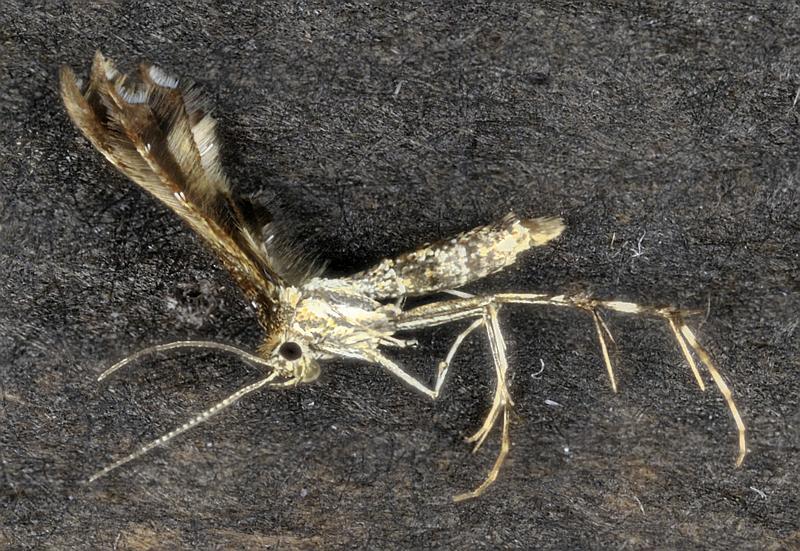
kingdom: Animalia
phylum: Arthropoda
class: Insecta
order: Lepidoptera
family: Pterophoridae
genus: Dejongia
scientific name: Dejongia lobidactylus
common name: Lobed plume moth
